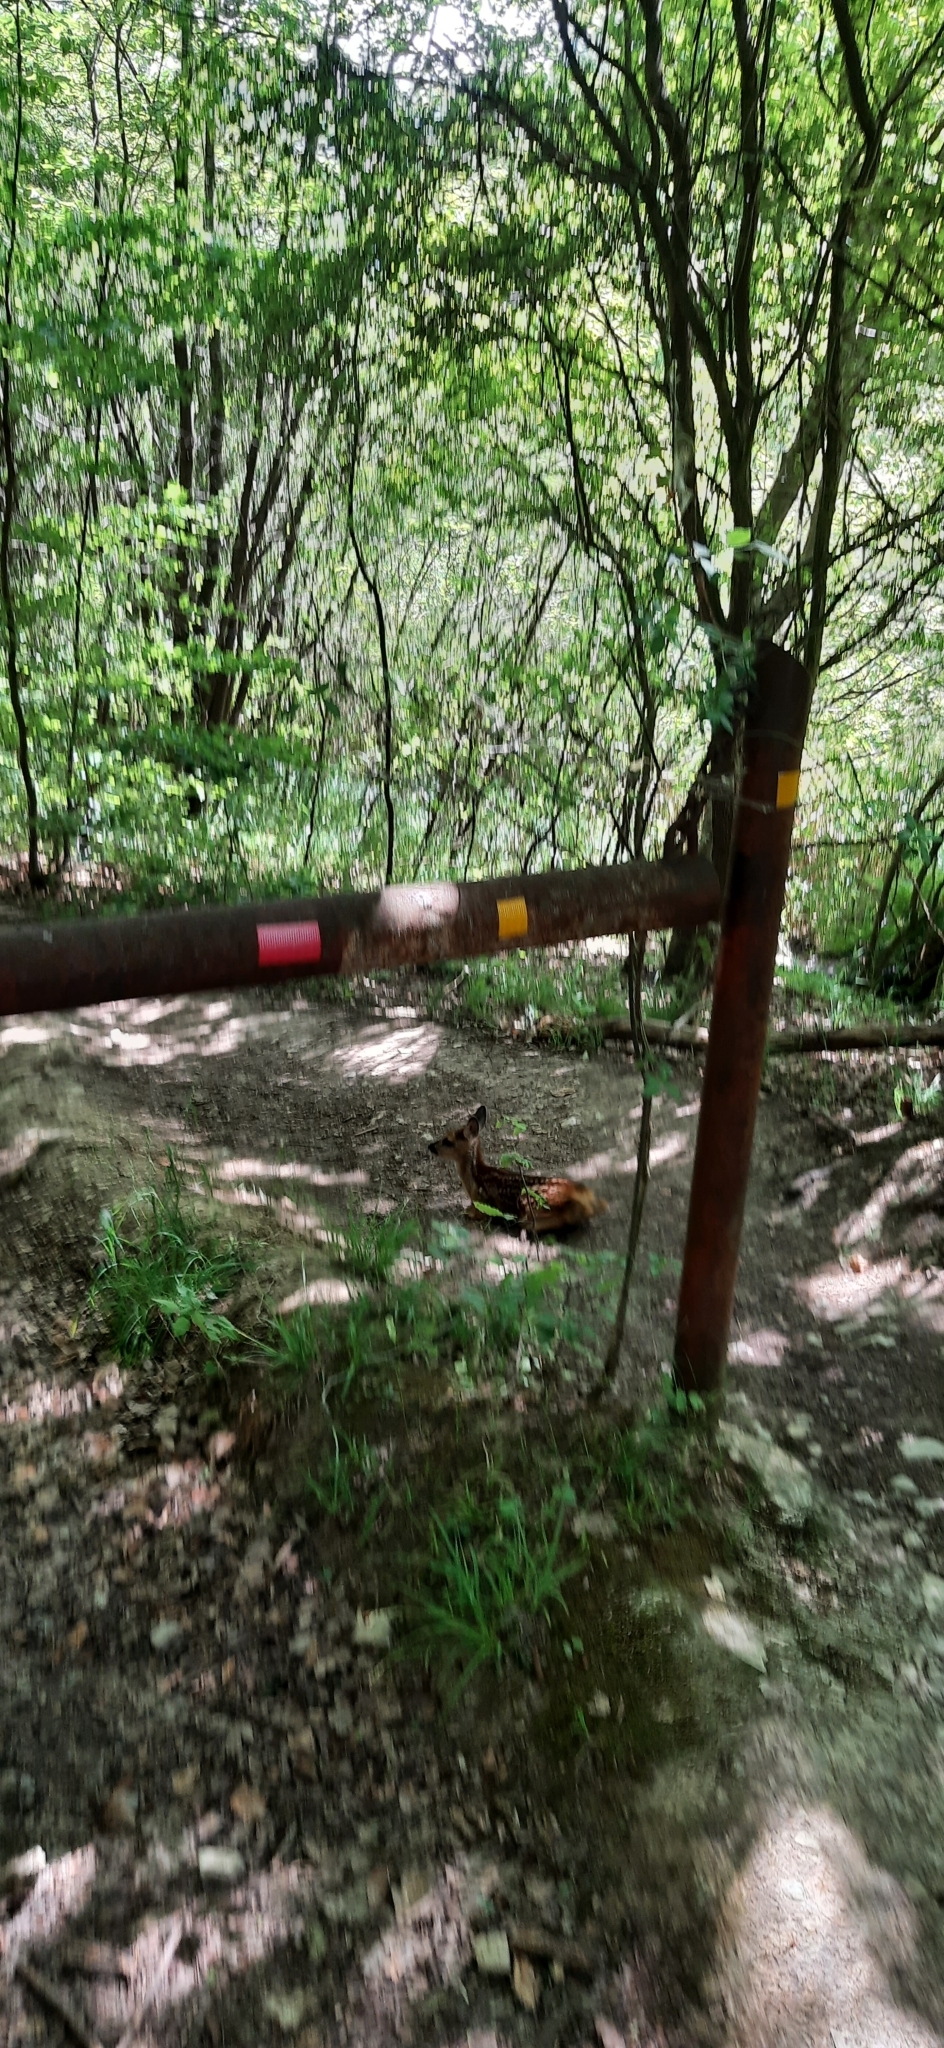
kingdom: Animalia
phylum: Chordata
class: Mammalia
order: Artiodactyla
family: Cervidae
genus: Capreolus
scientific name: Capreolus capreolus
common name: Western roe deer
